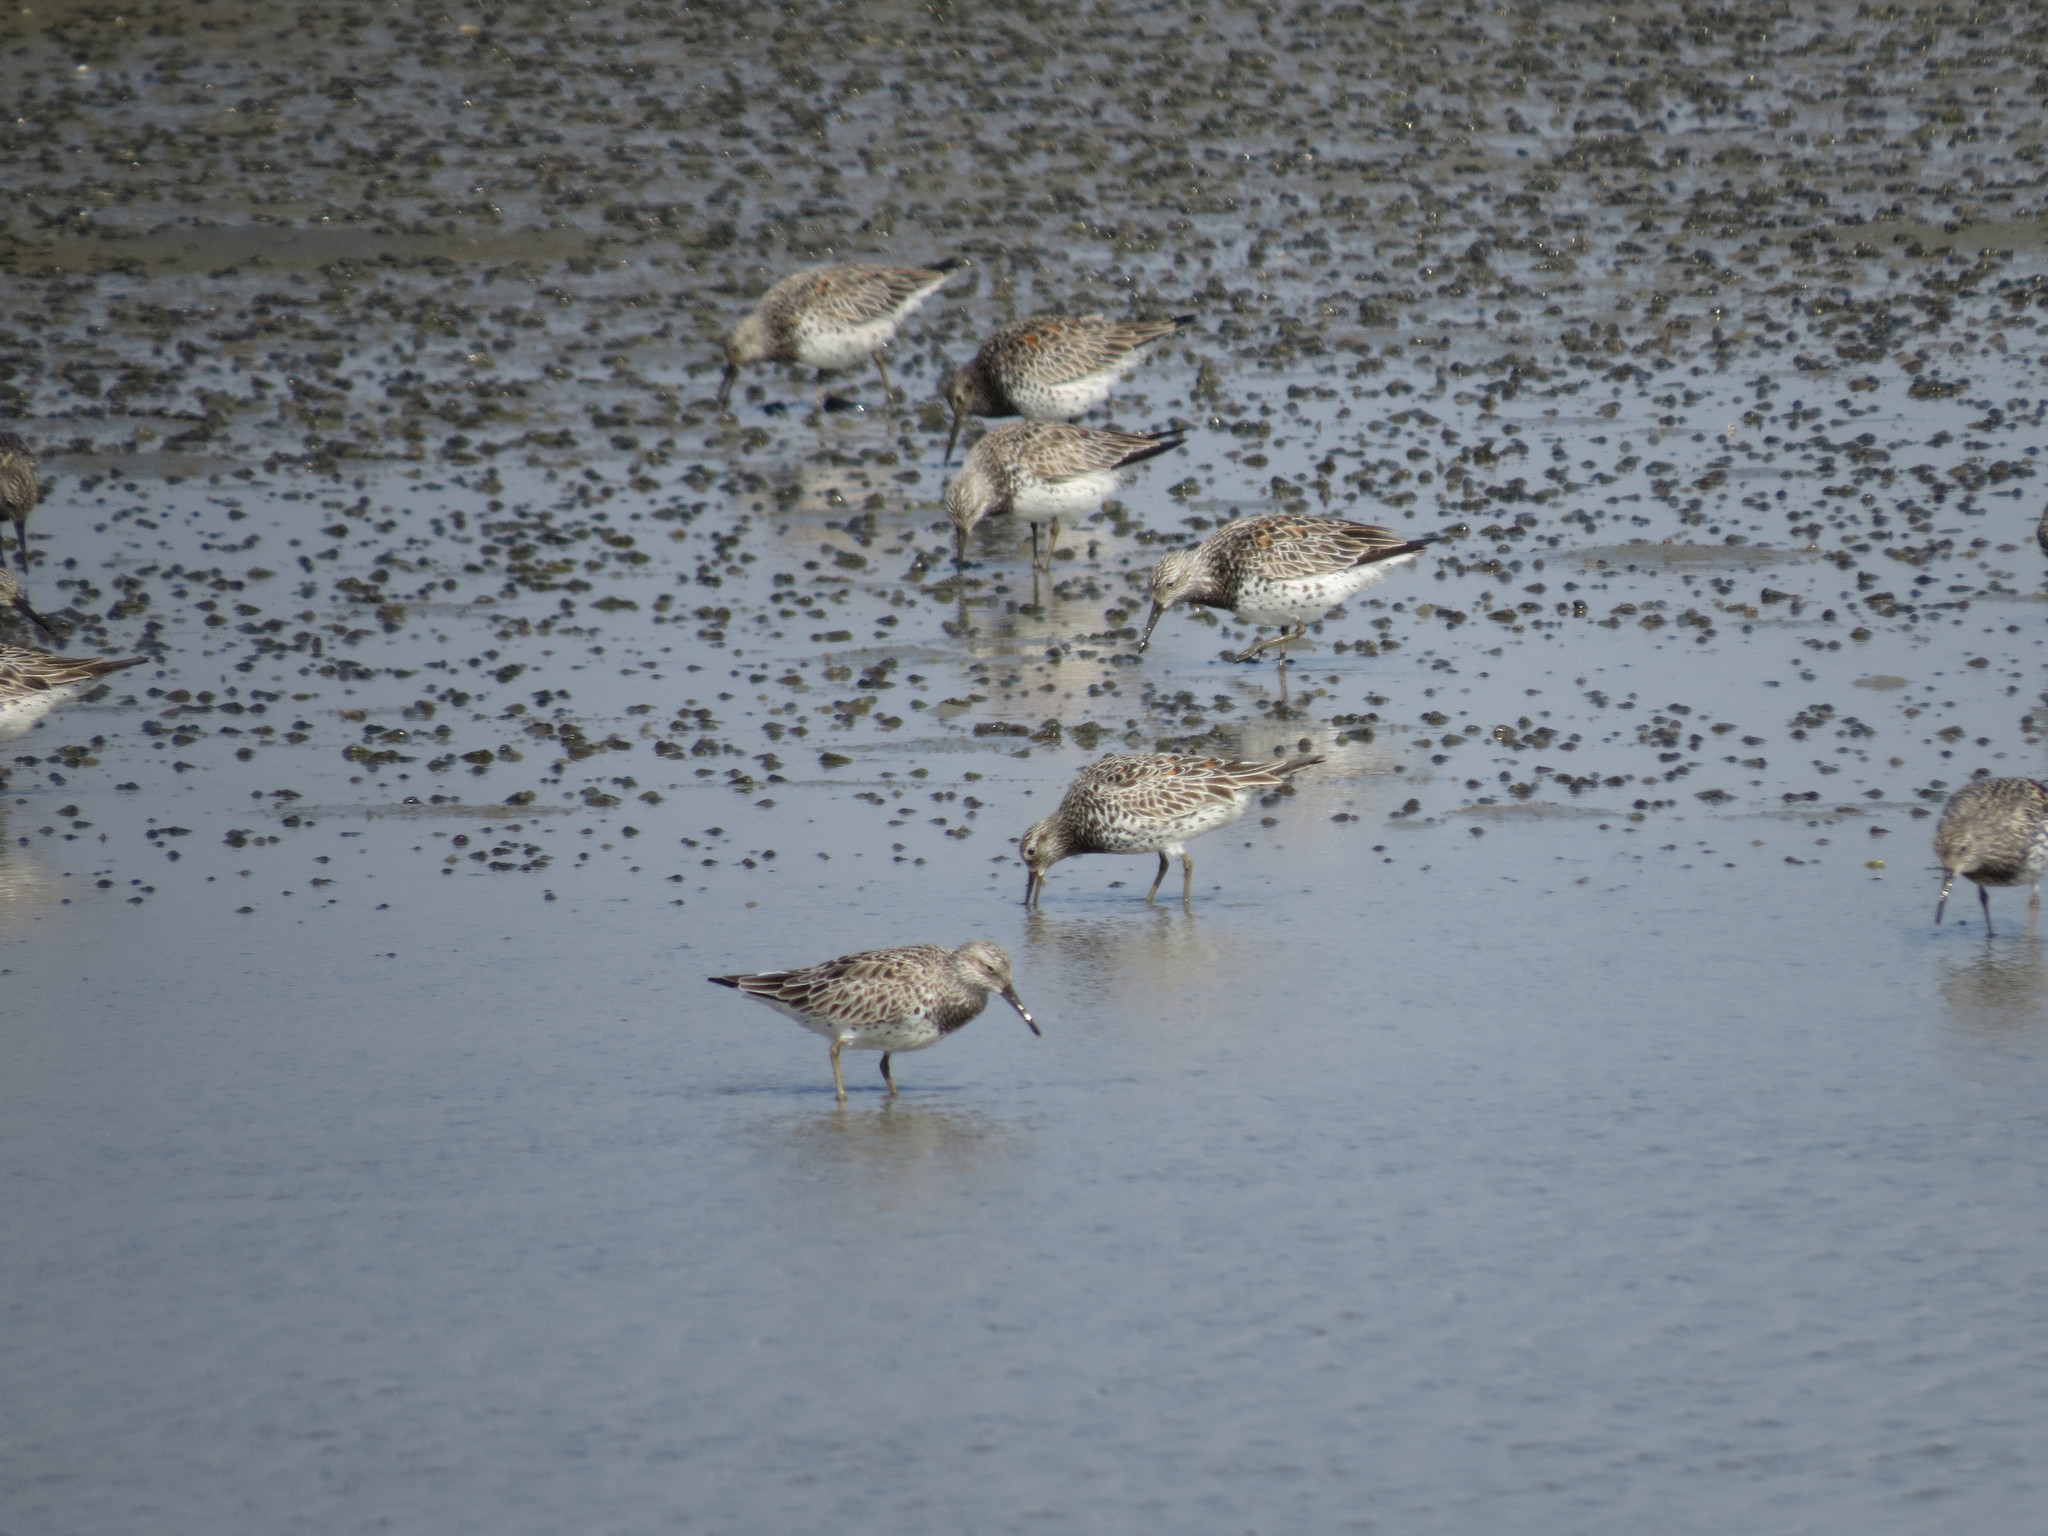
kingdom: Animalia
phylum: Chordata
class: Aves
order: Charadriiformes
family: Scolopacidae
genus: Calidris
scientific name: Calidris tenuirostris
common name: Great knot
